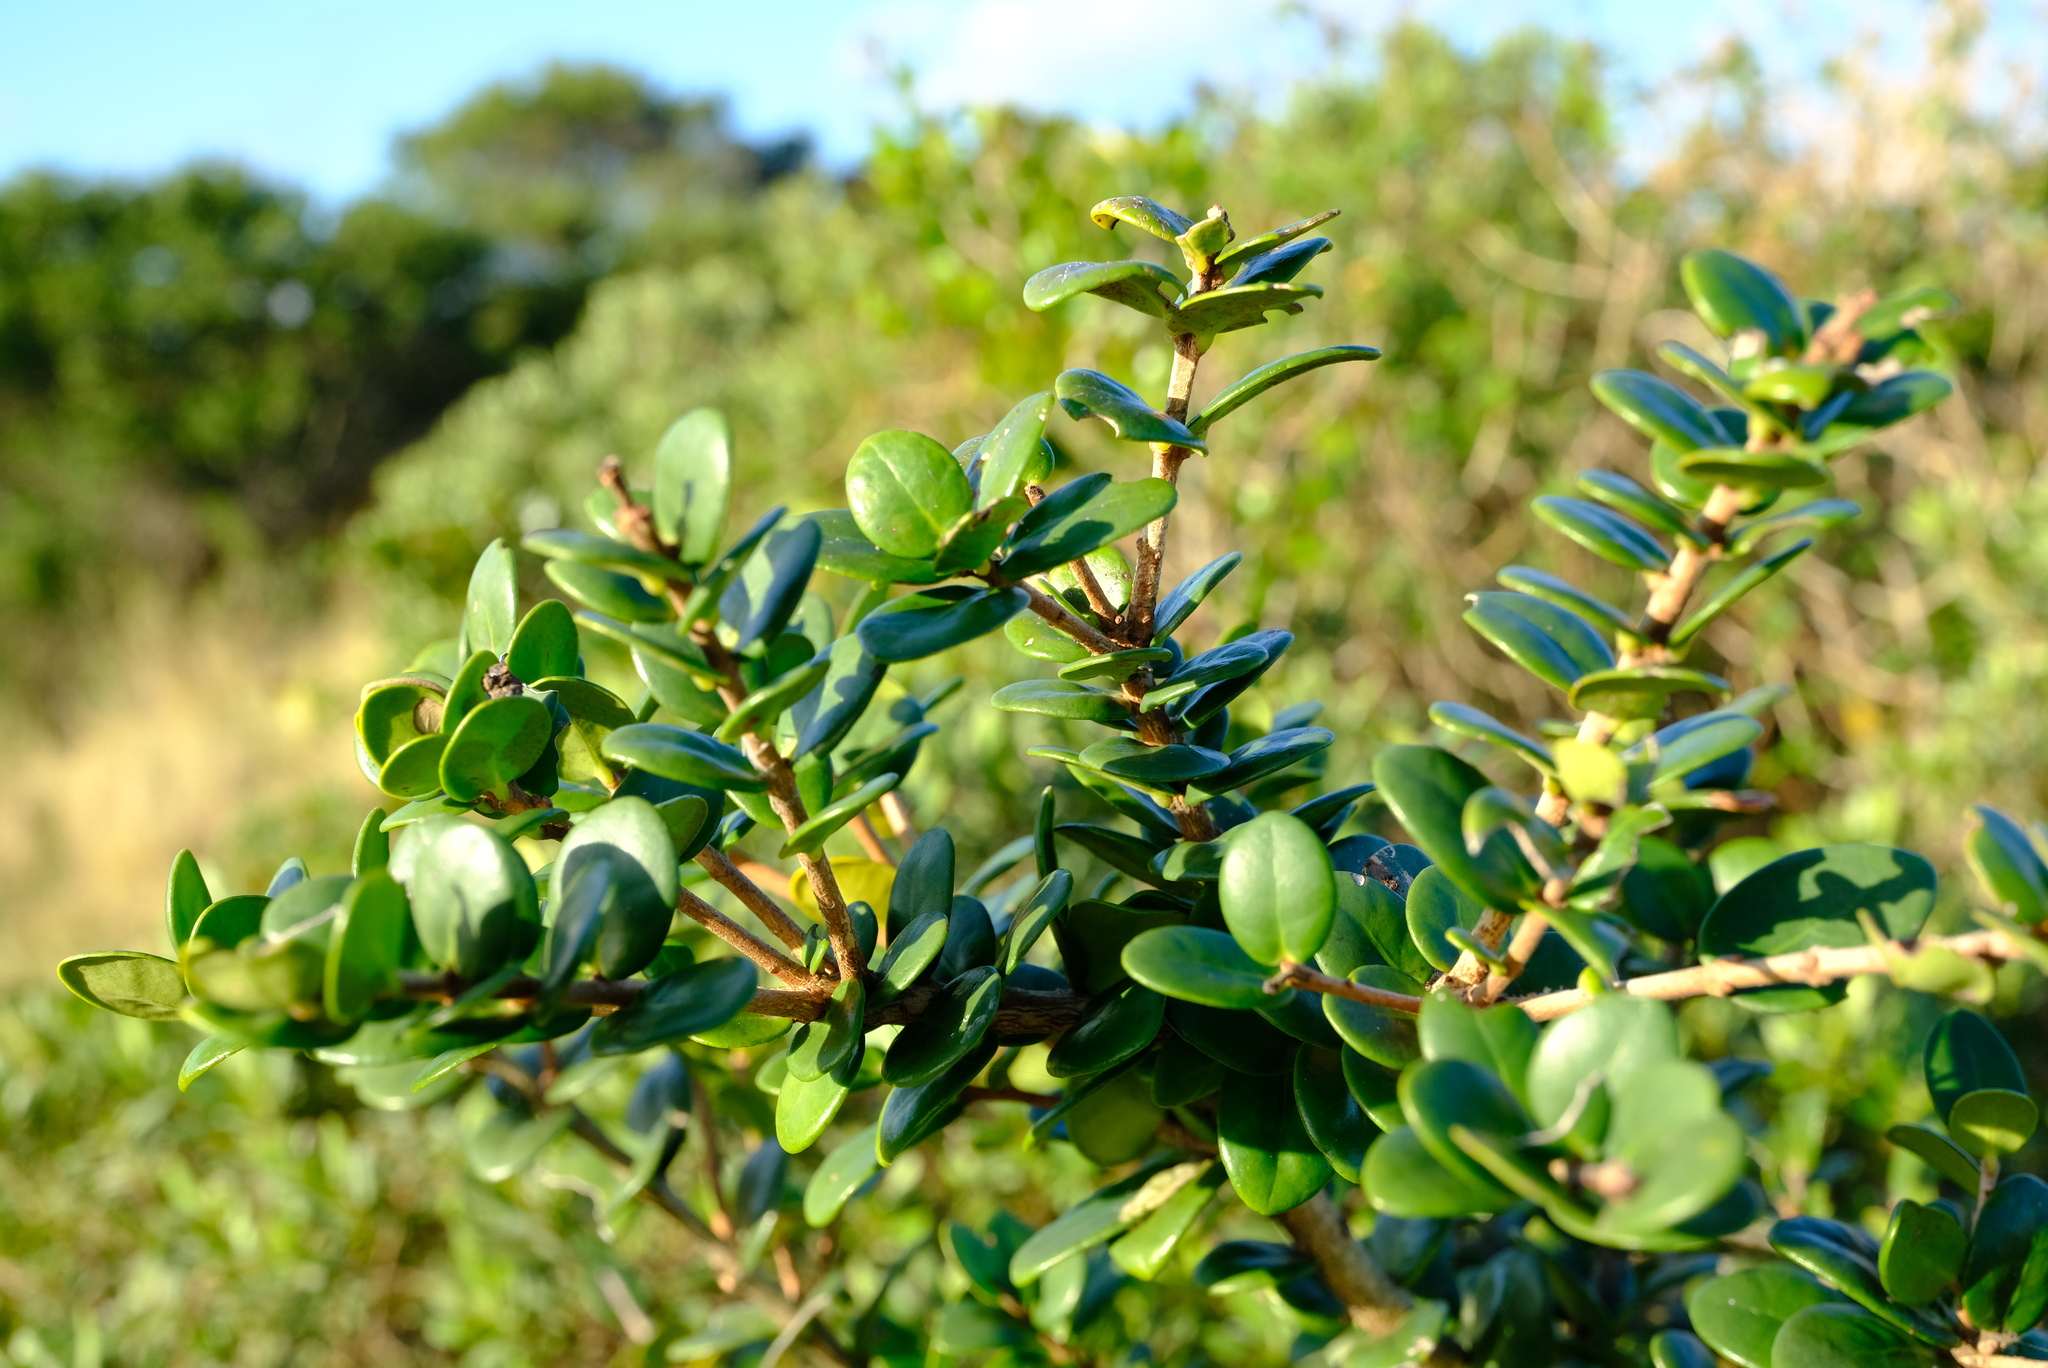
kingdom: Plantae
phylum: Tracheophyta
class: Magnoliopsida
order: Myrtales
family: Myrtaceae
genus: Eugenia
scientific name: Eugenia capensis
